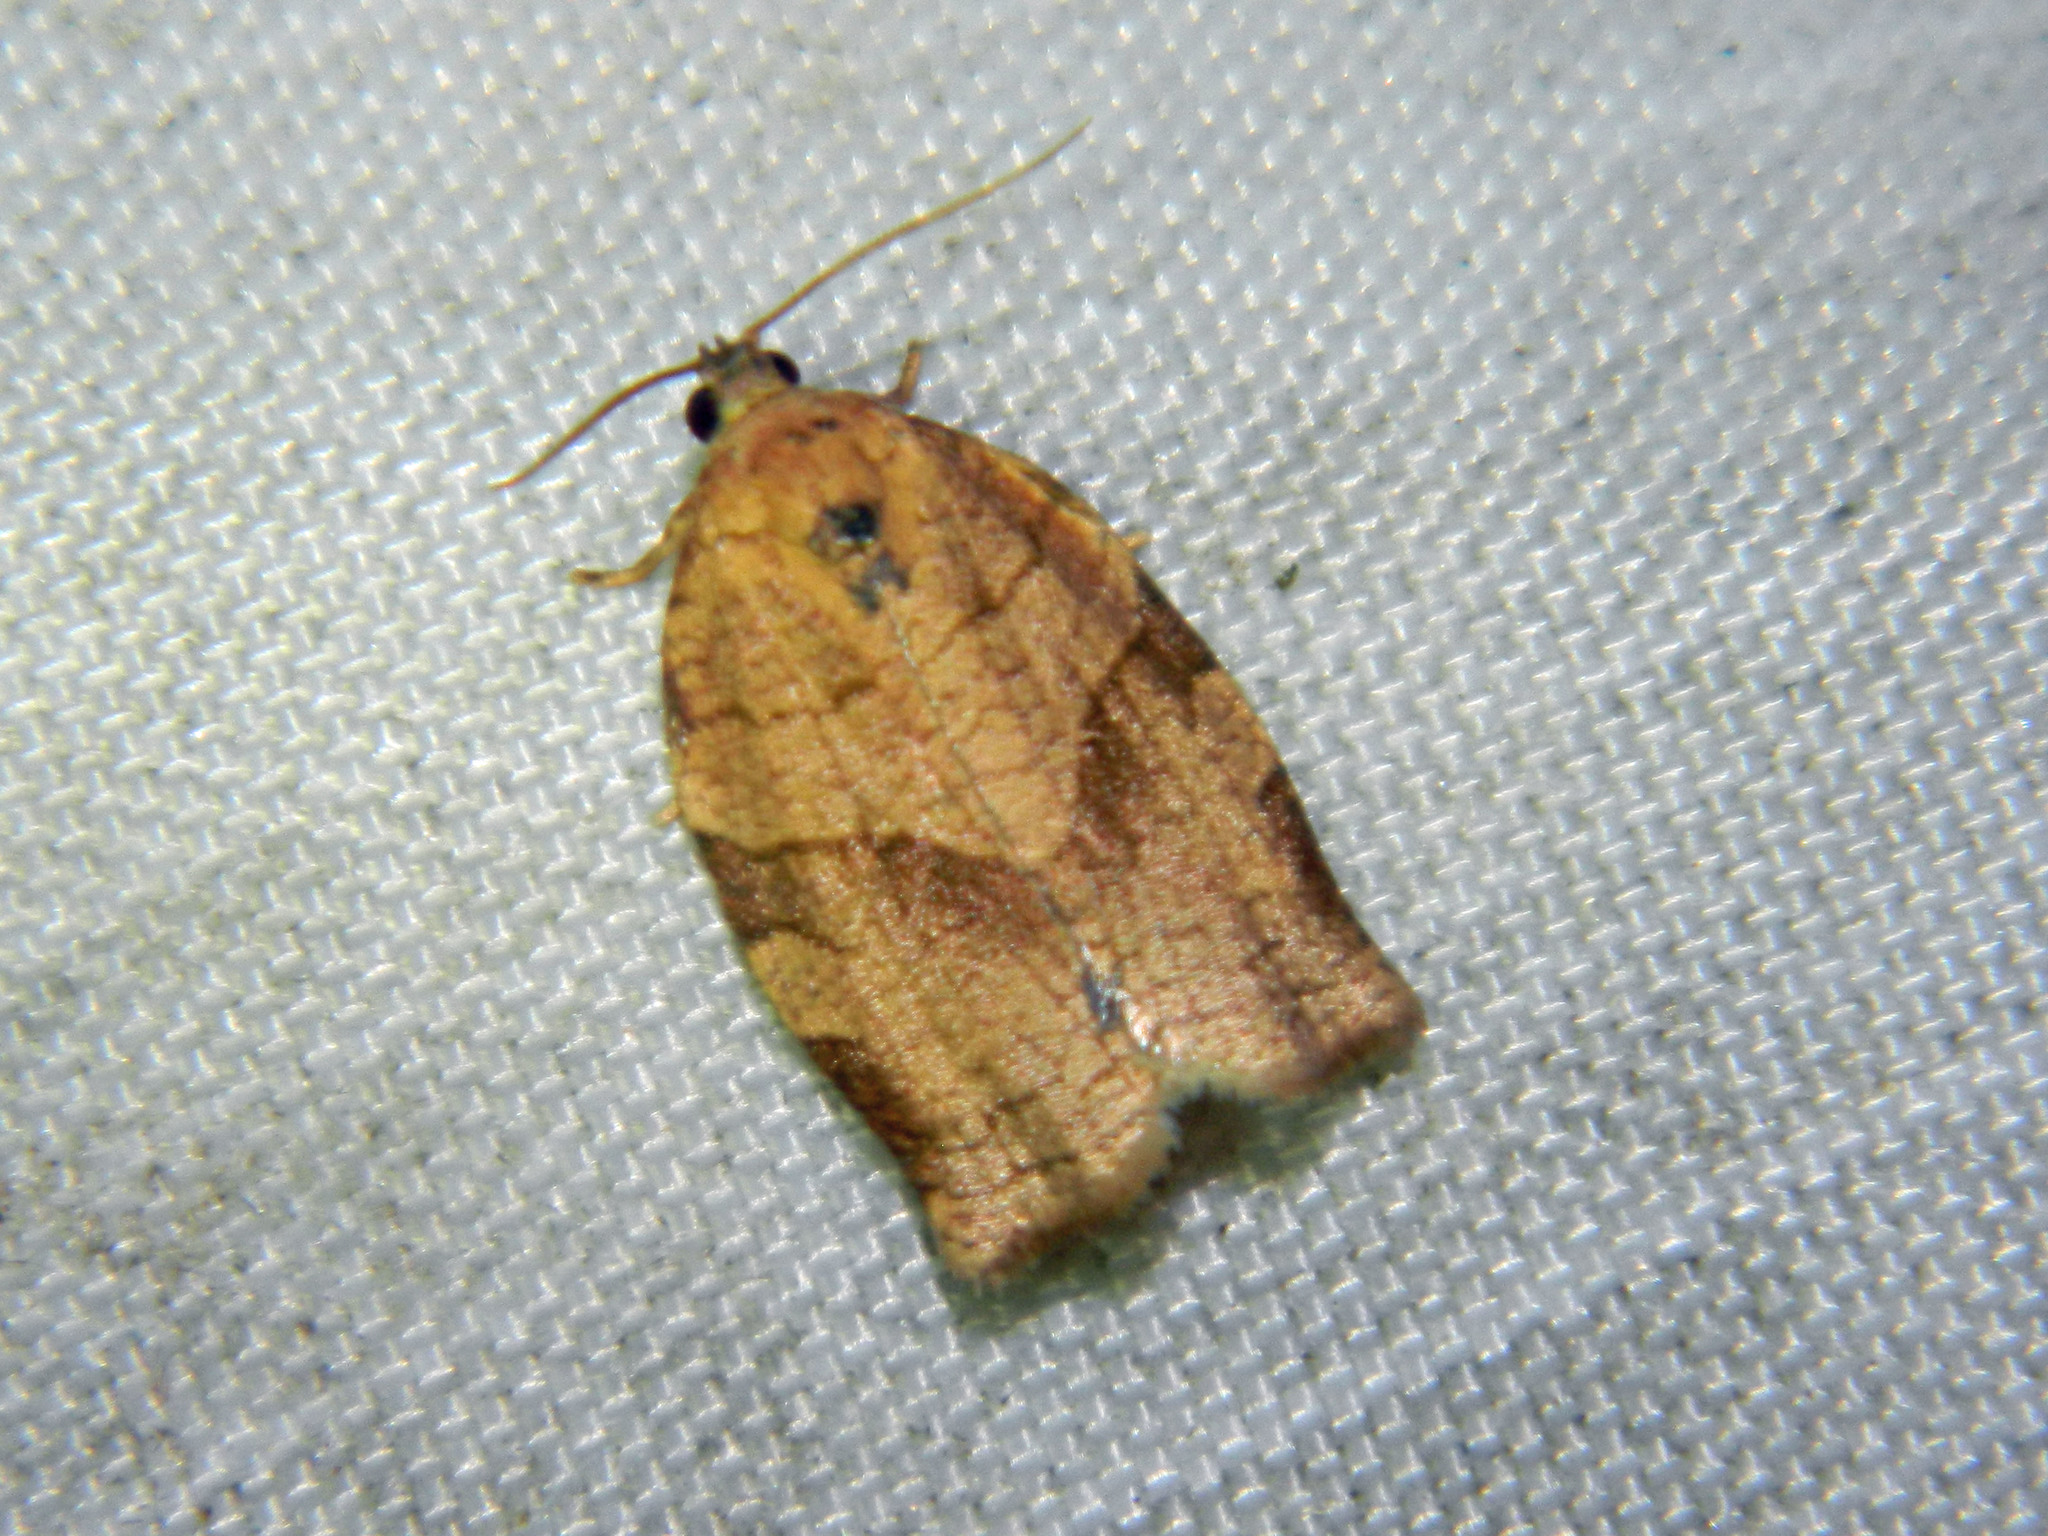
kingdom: Animalia
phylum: Arthropoda
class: Insecta
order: Lepidoptera
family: Tortricidae
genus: Choristoneura
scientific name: Choristoneura rosaceana
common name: Oblique-banded leafroller moth
